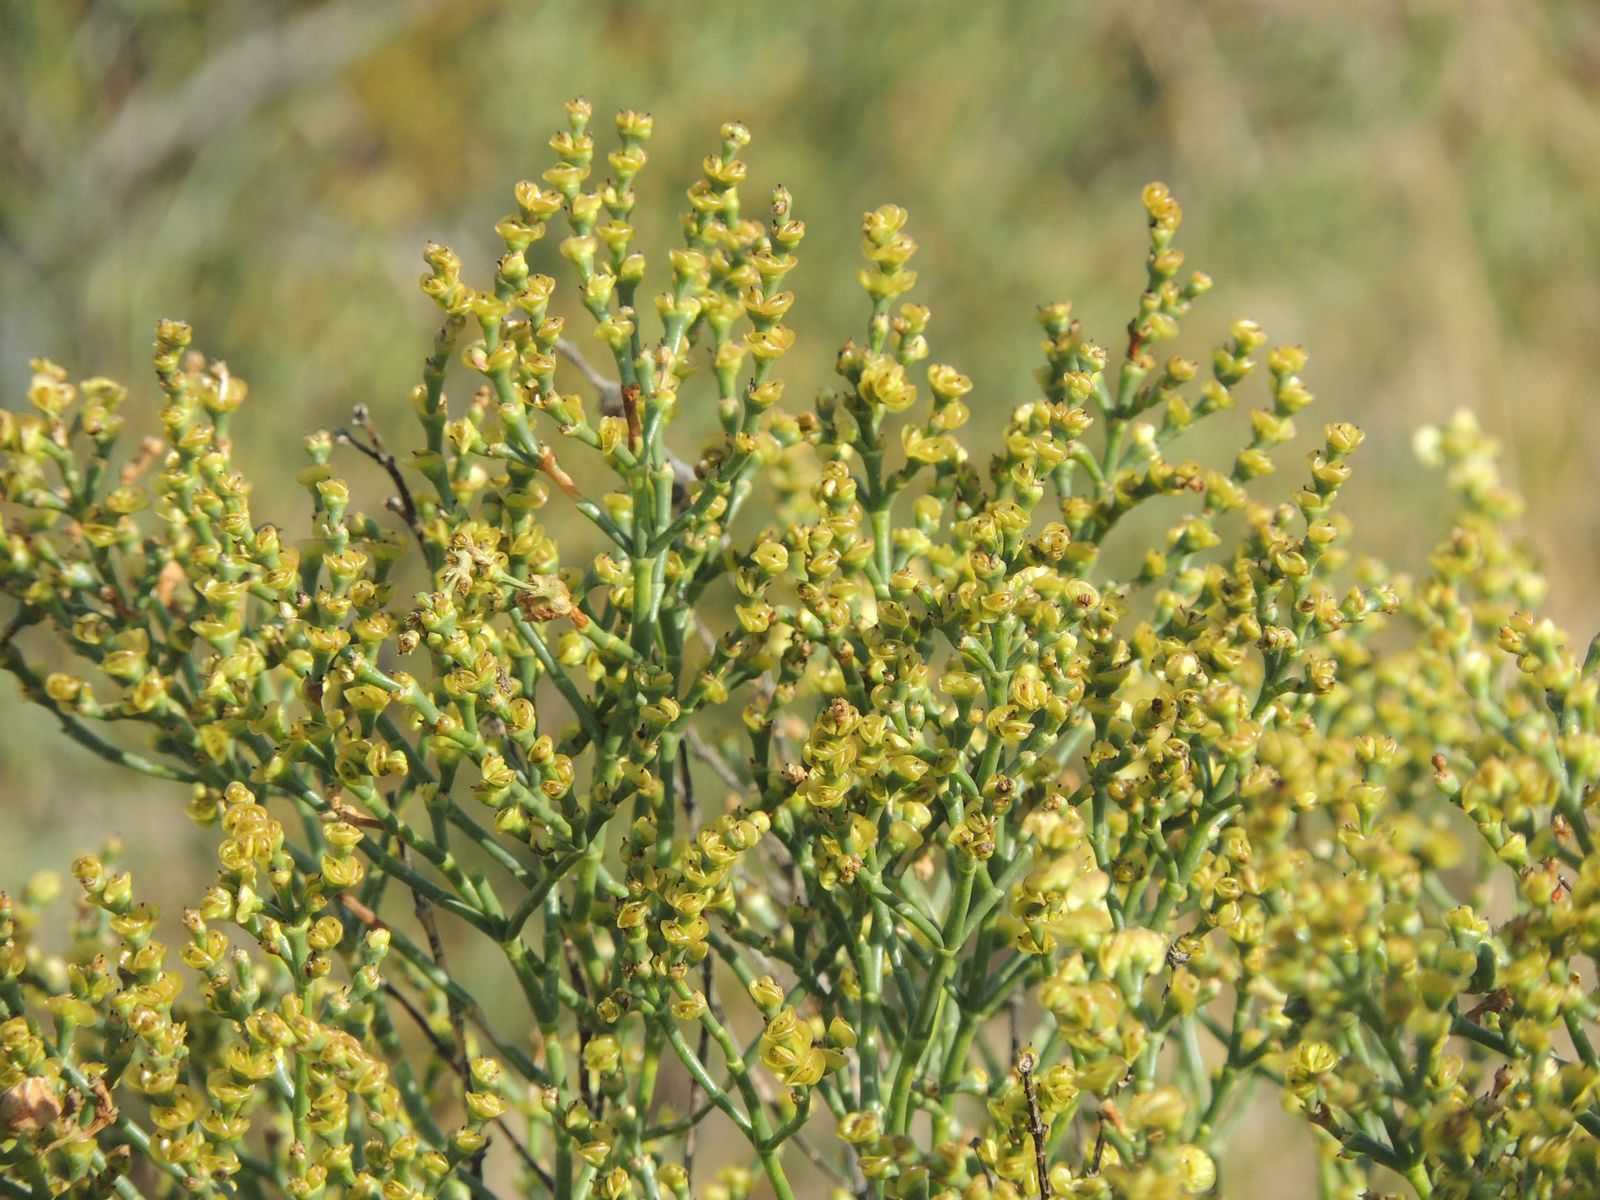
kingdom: Plantae
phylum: Tracheophyta
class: Magnoliopsida
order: Caryophyllales
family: Amaranthaceae
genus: Anabasis
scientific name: Anabasis aphylla
